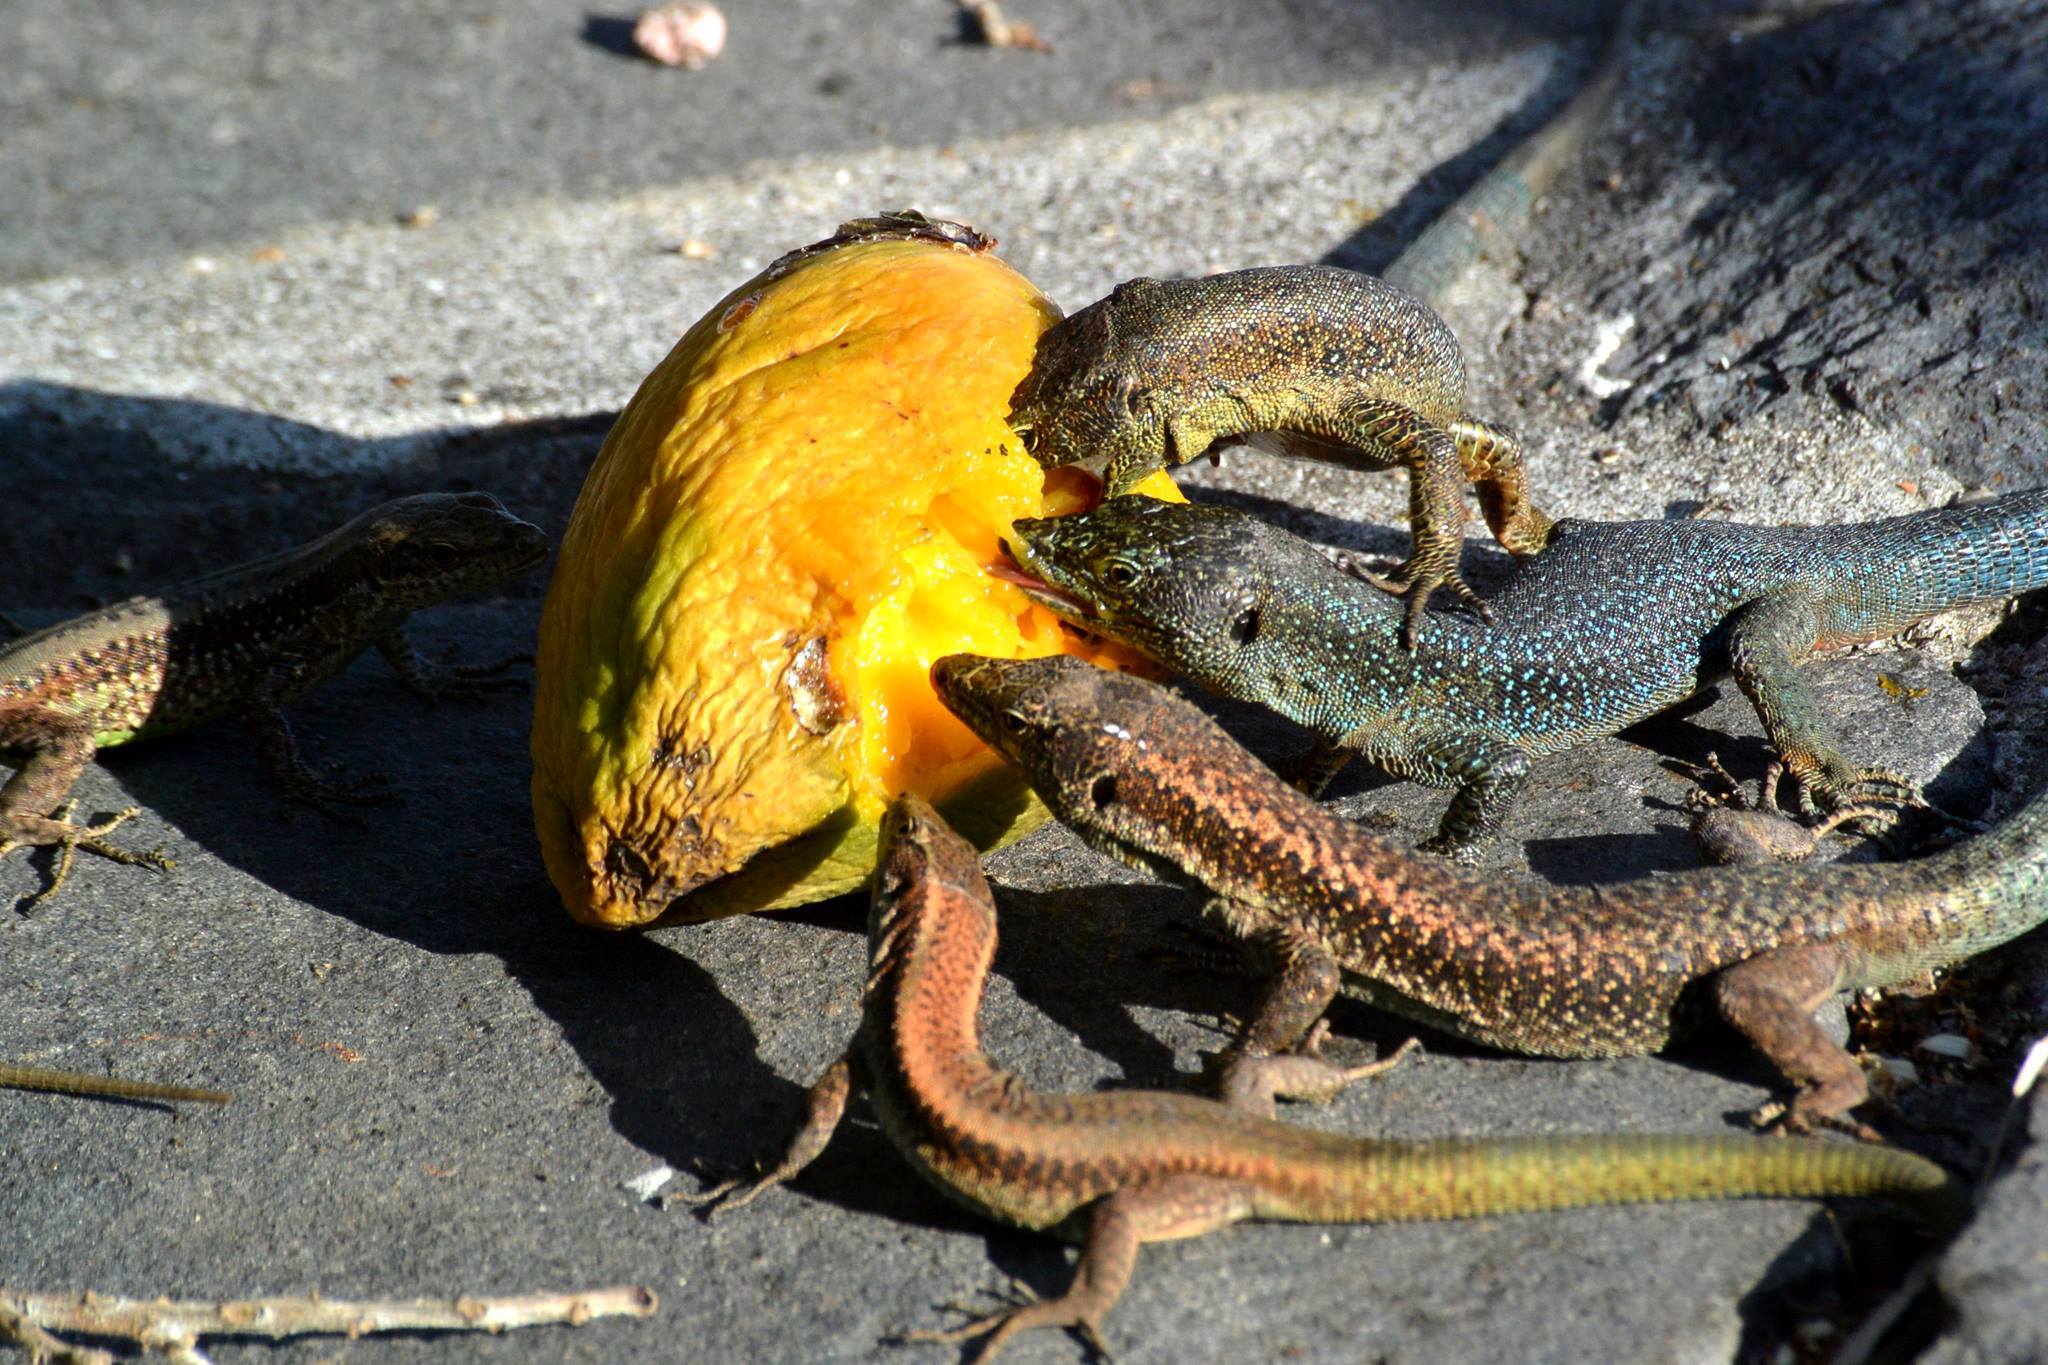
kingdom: Animalia
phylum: Chordata
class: Squamata
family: Lacertidae
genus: Teira
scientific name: Teira dugesii
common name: Madeira lizard
